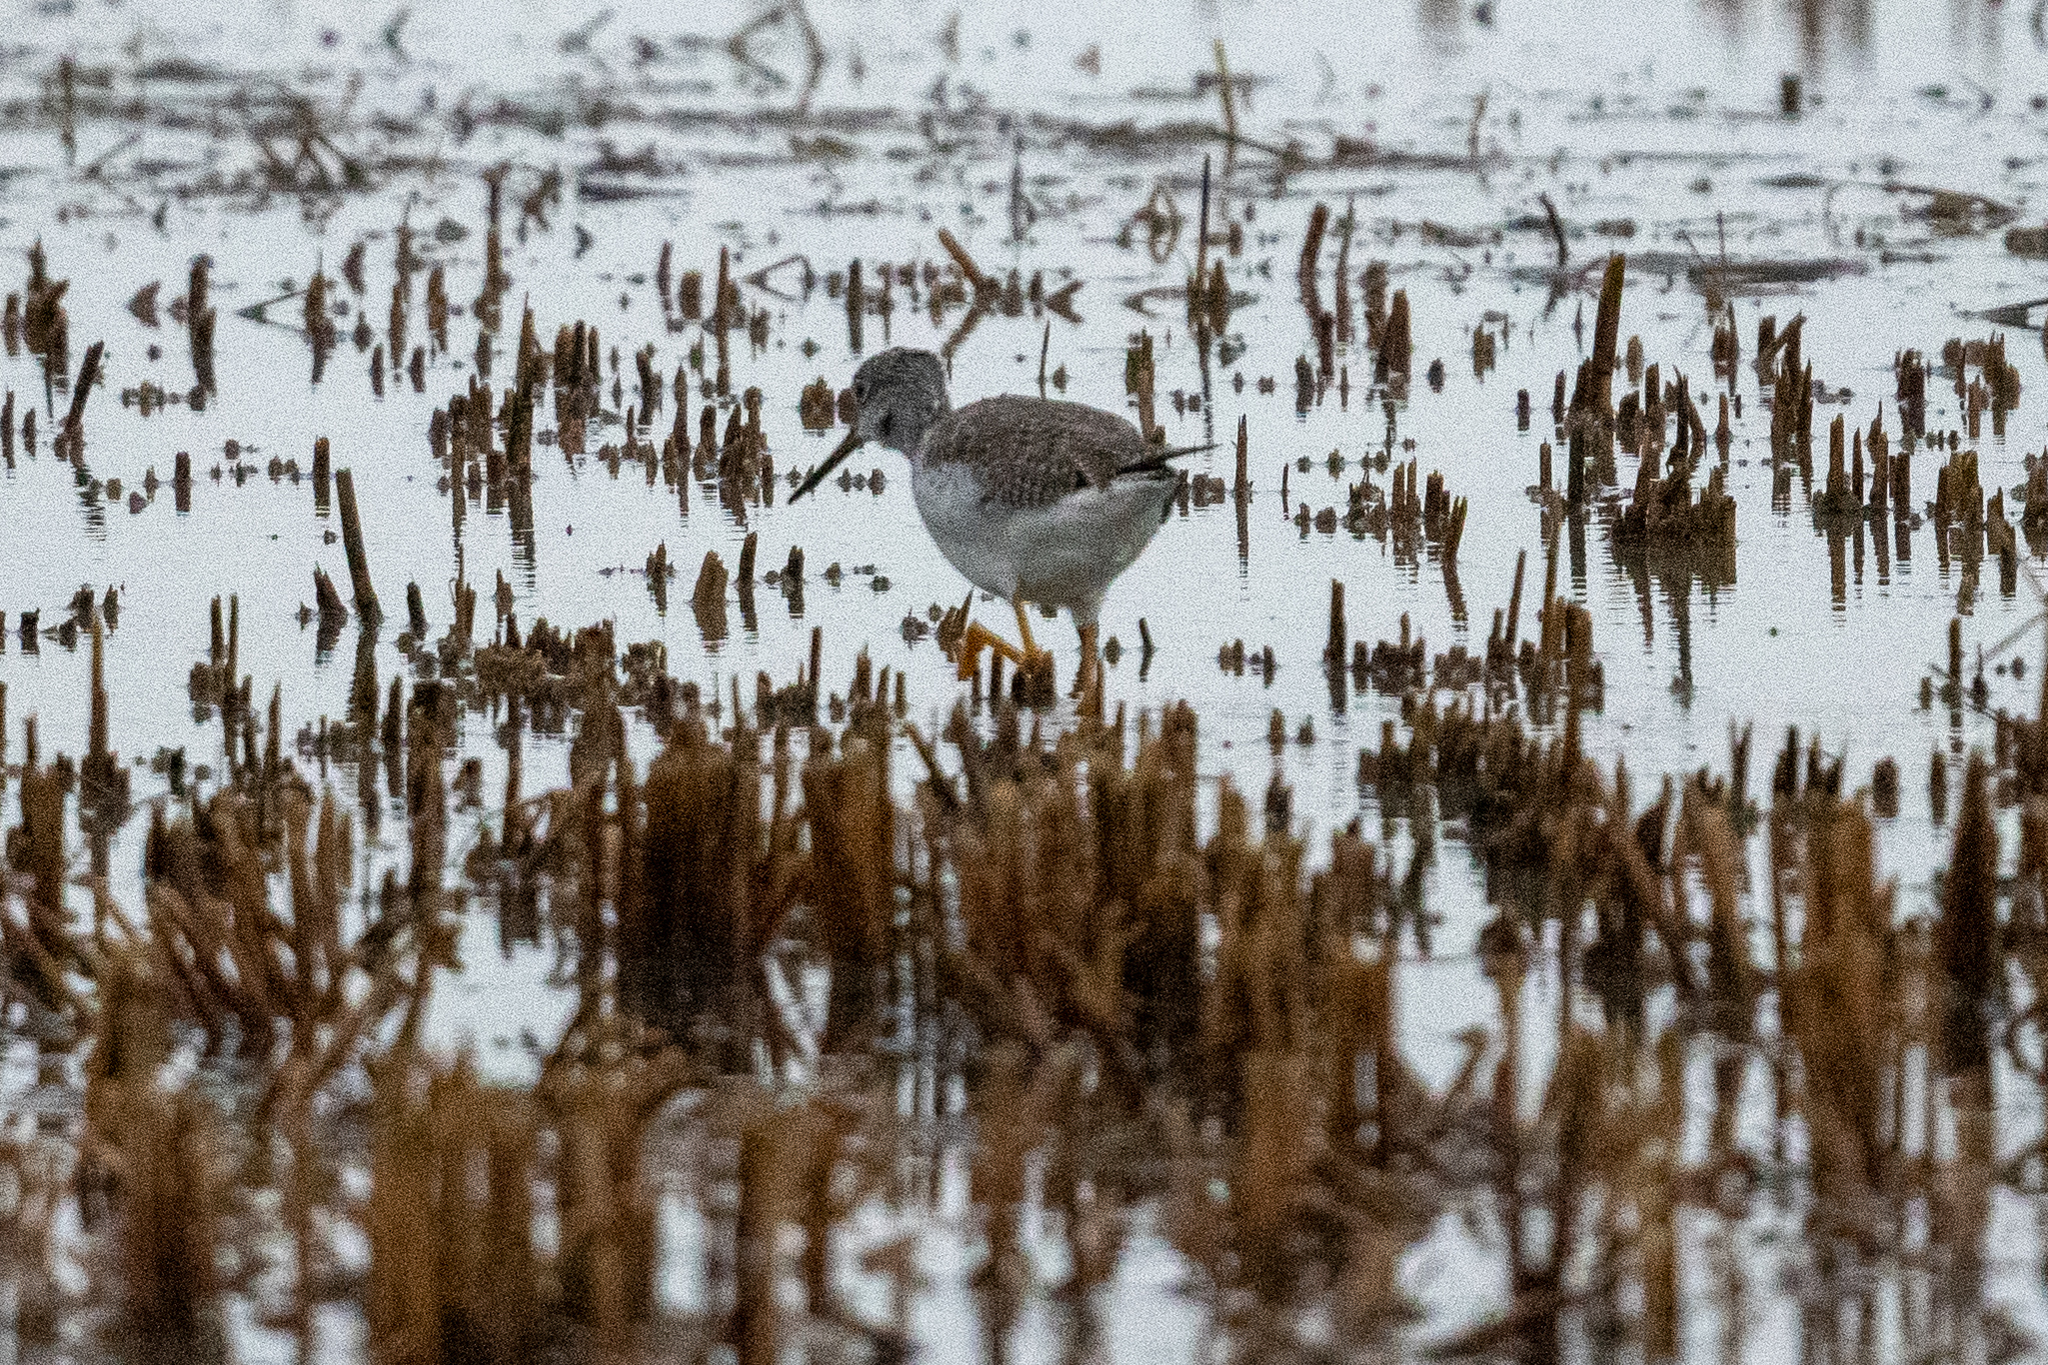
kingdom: Animalia
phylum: Chordata
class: Aves
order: Charadriiformes
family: Scolopacidae
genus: Tringa
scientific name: Tringa melanoleuca
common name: Greater yellowlegs
